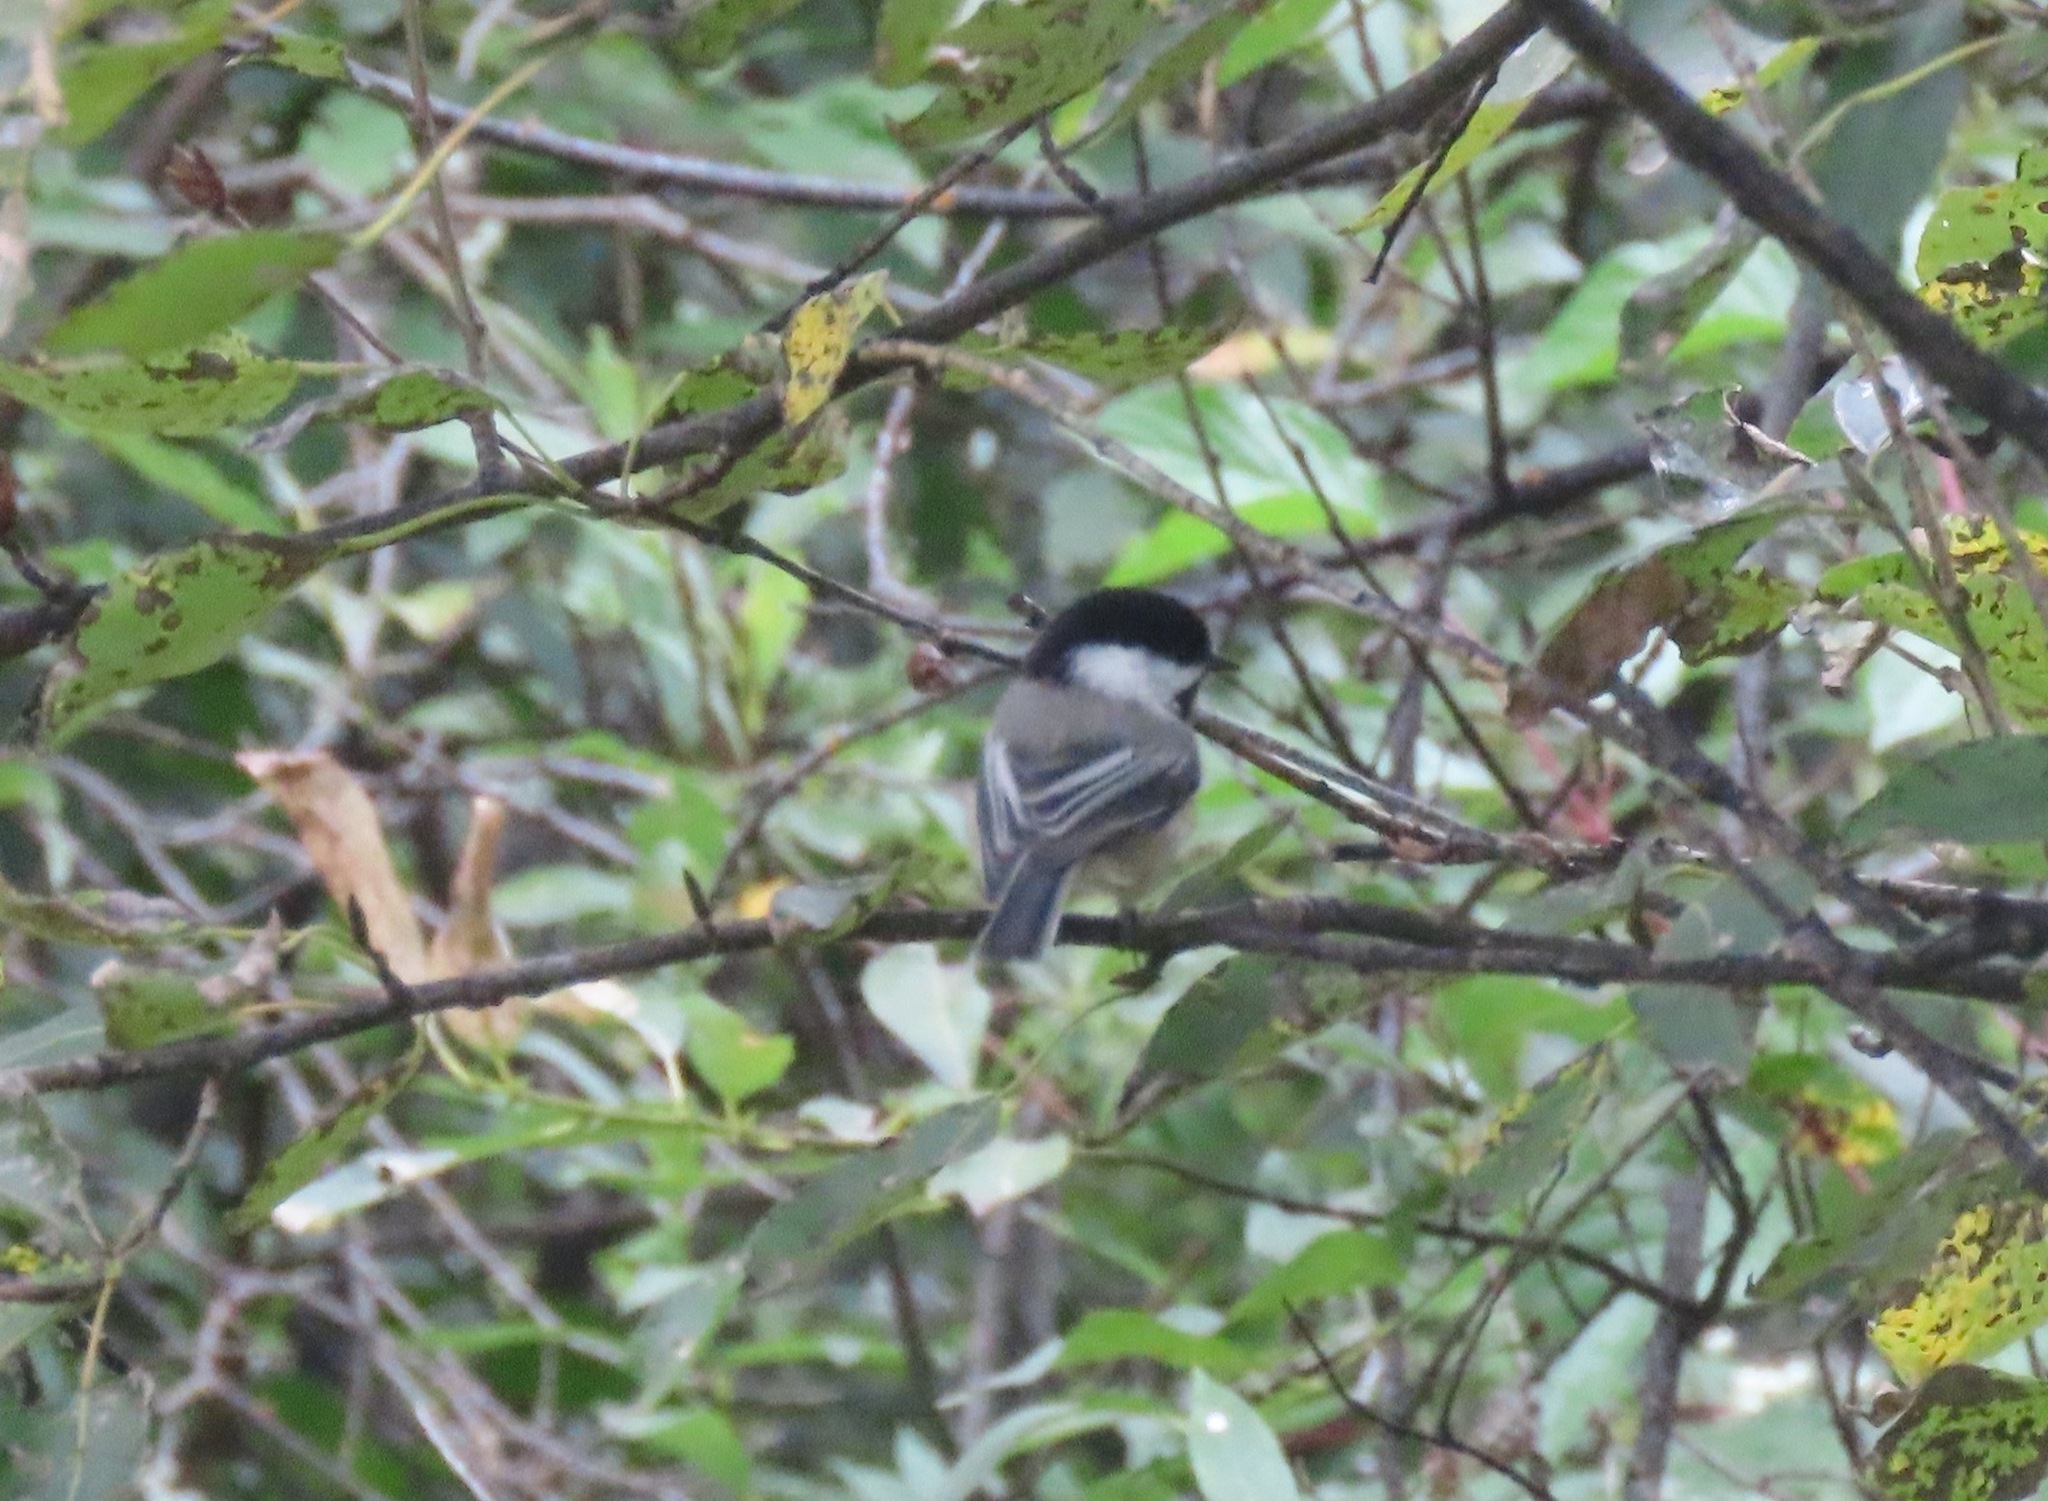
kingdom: Animalia
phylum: Chordata
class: Aves
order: Passeriformes
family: Paridae
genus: Poecile
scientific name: Poecile atricapillus
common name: Black-capped chickadee
